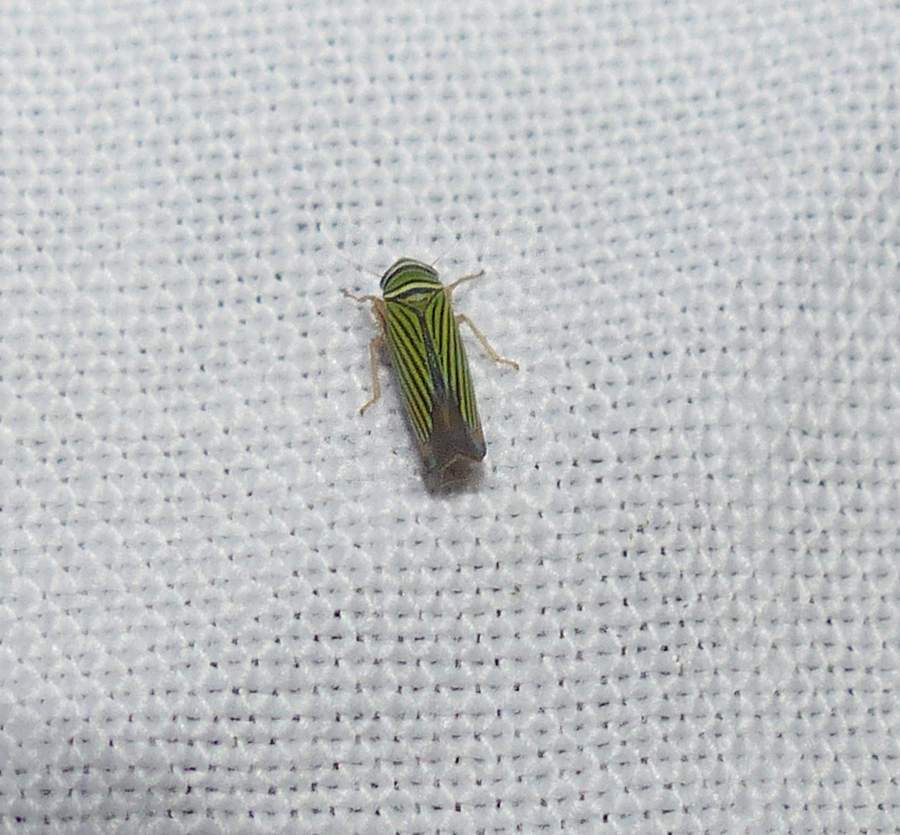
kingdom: Animalia
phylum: Arthropoda
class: Insecta
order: Hemiptera
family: Cicadellidae
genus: Tylozygus
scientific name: Tylozygus bifidus
